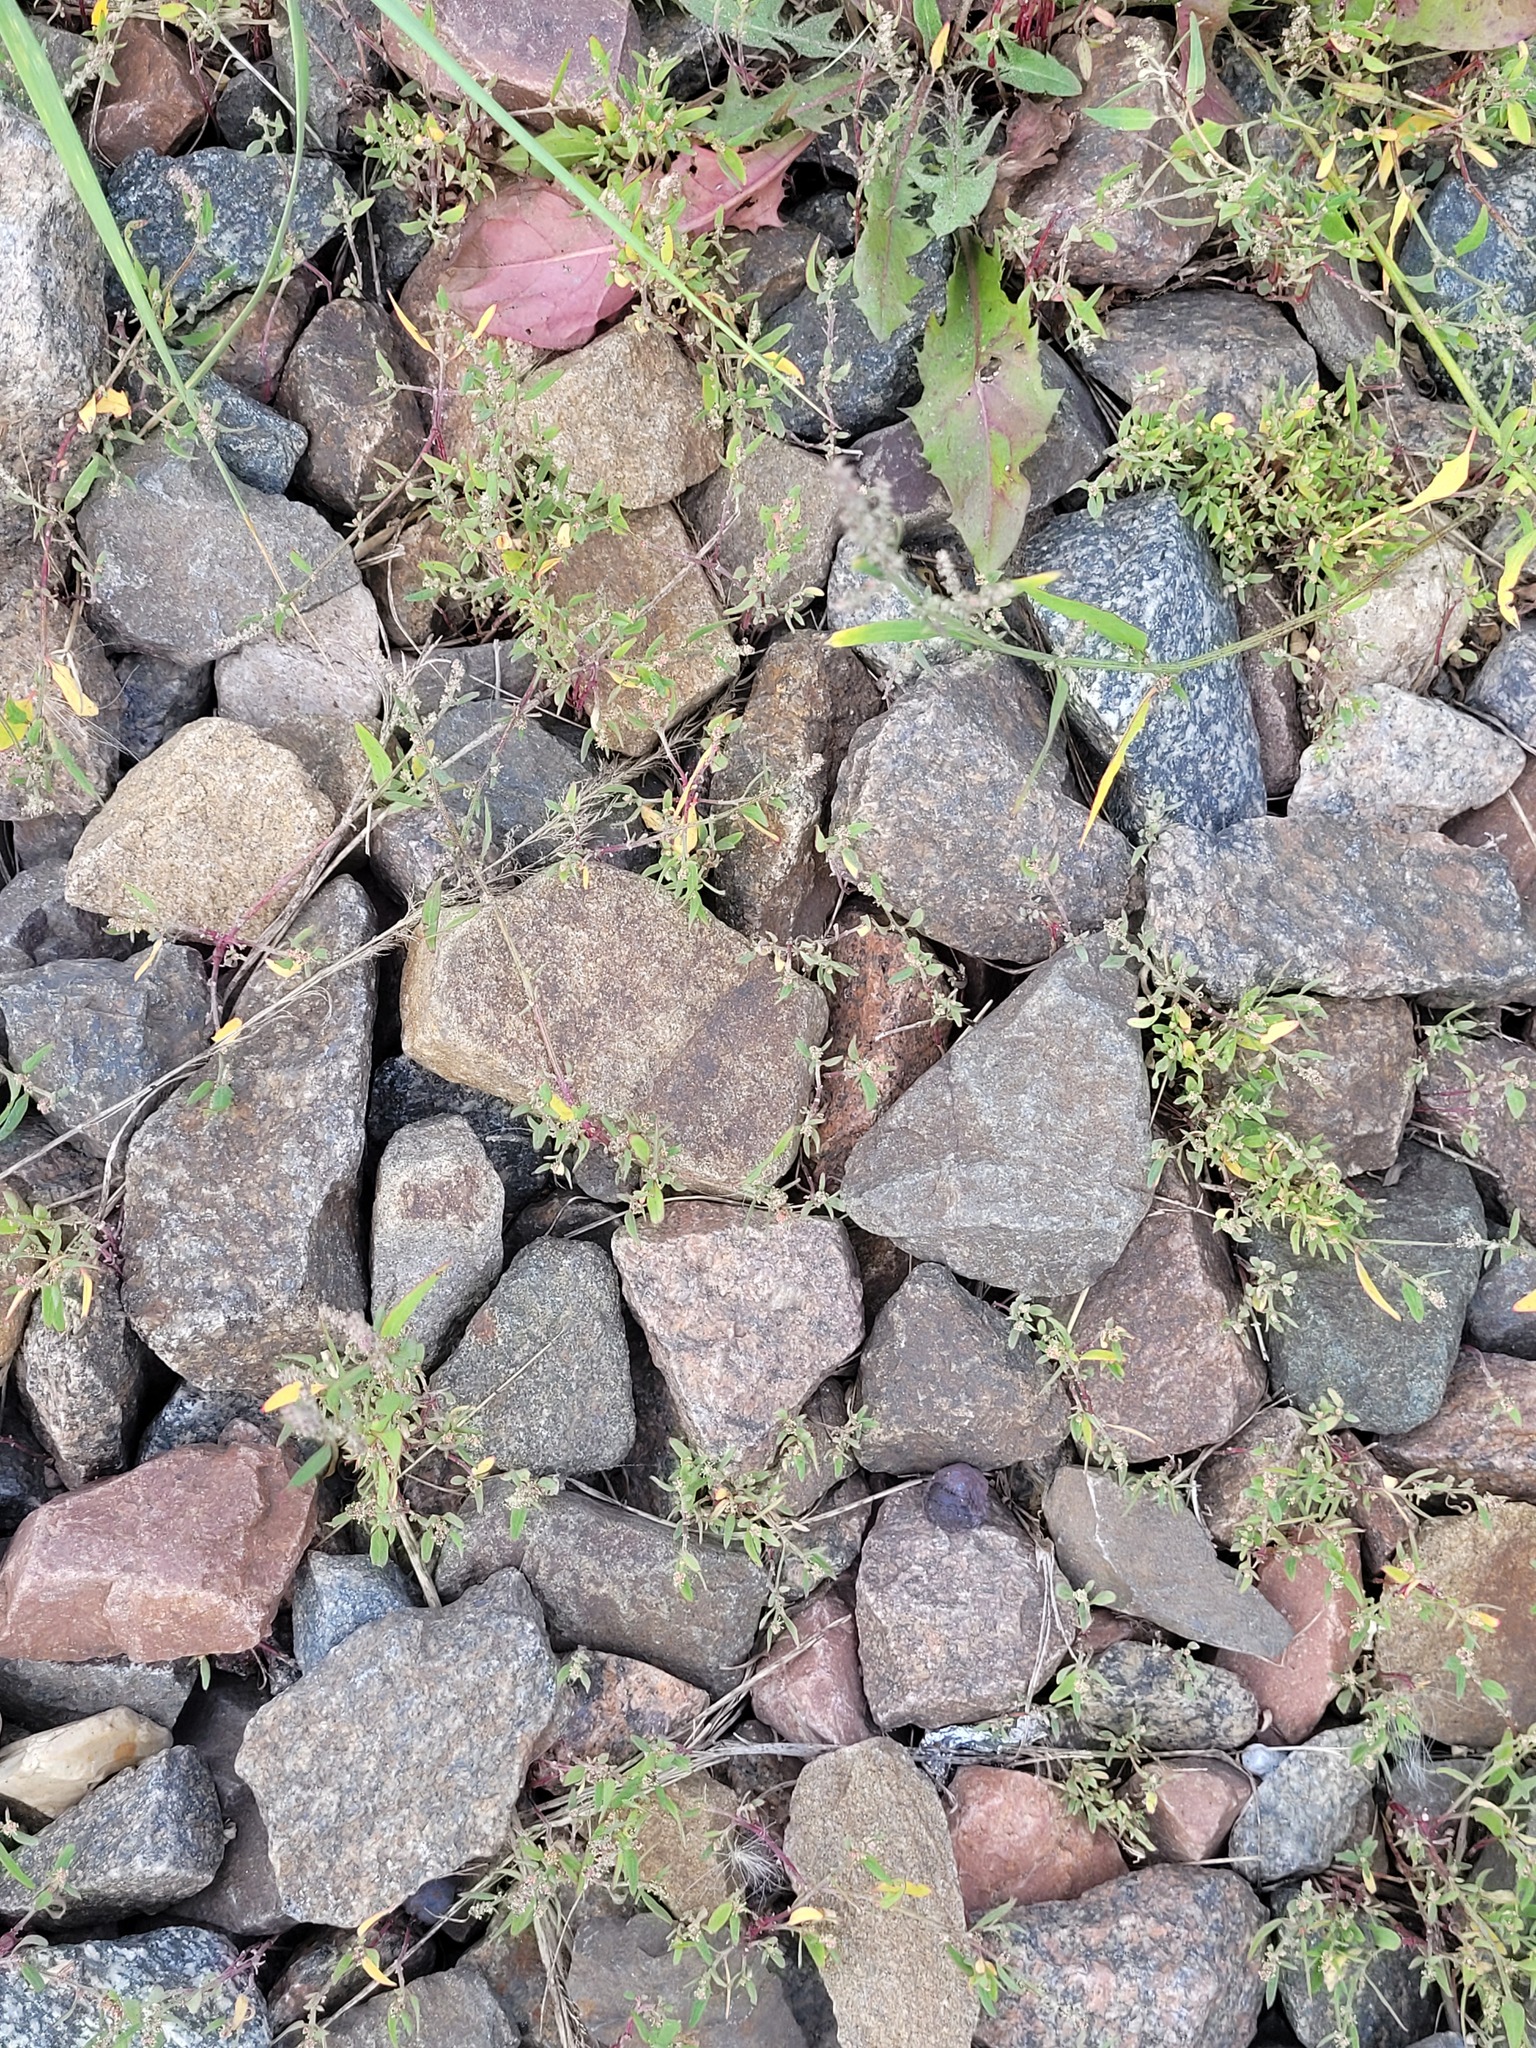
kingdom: Plantae
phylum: Tracheophyta
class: Magnoliopsida
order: Caryophyllales
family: Amaranthaceae
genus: Atriplex
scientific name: Atriplex patula
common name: Common orache
